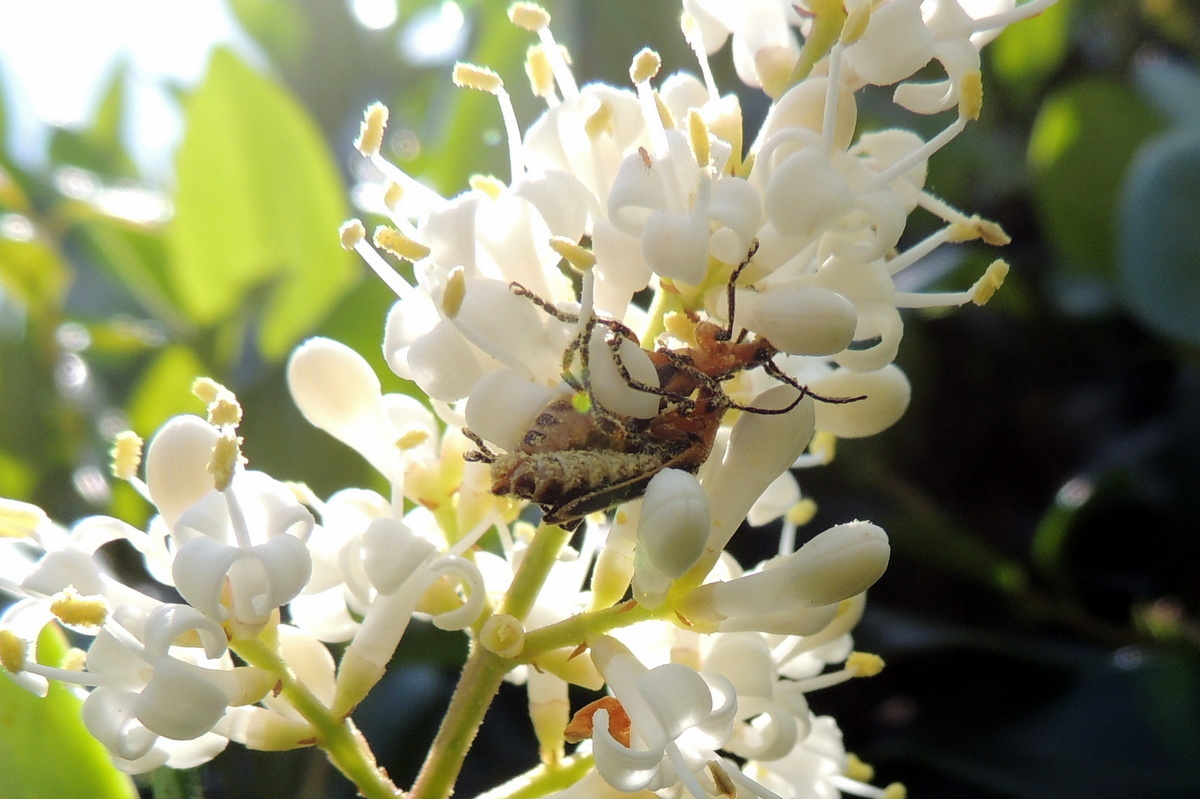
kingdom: Animalia
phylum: Arthropoda
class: Insecta
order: Coleoptera
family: Cantharidae
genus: Chauliognathus
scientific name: Chauliognathus marginatus
